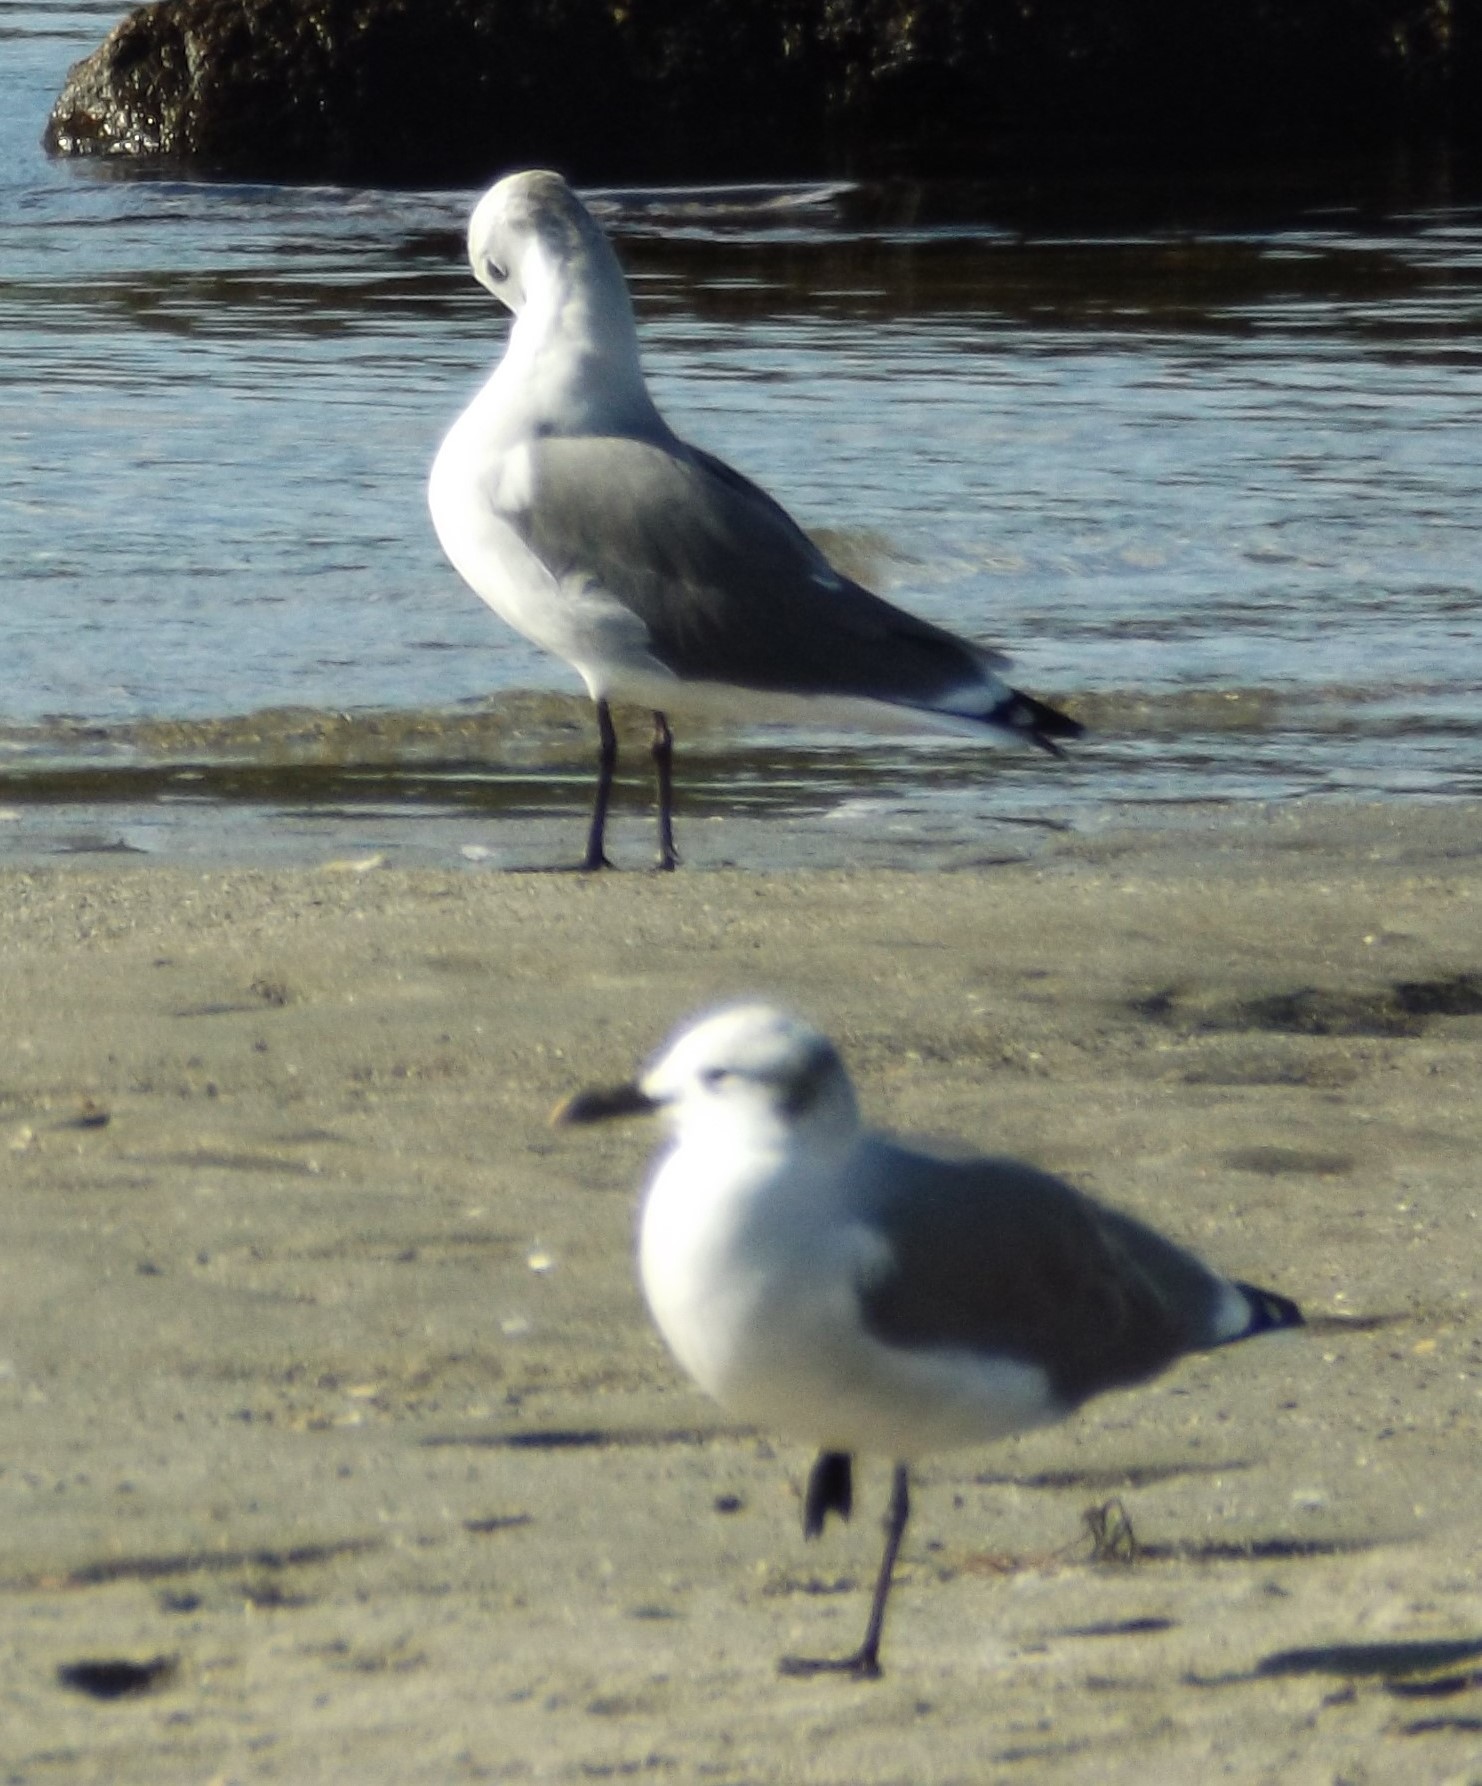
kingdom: Animalia
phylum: Chordata
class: Aves
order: Charadriiformes
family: Laridae
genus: Leucophaeus
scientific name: Leucophaeus atricilla
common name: Laughing gull
